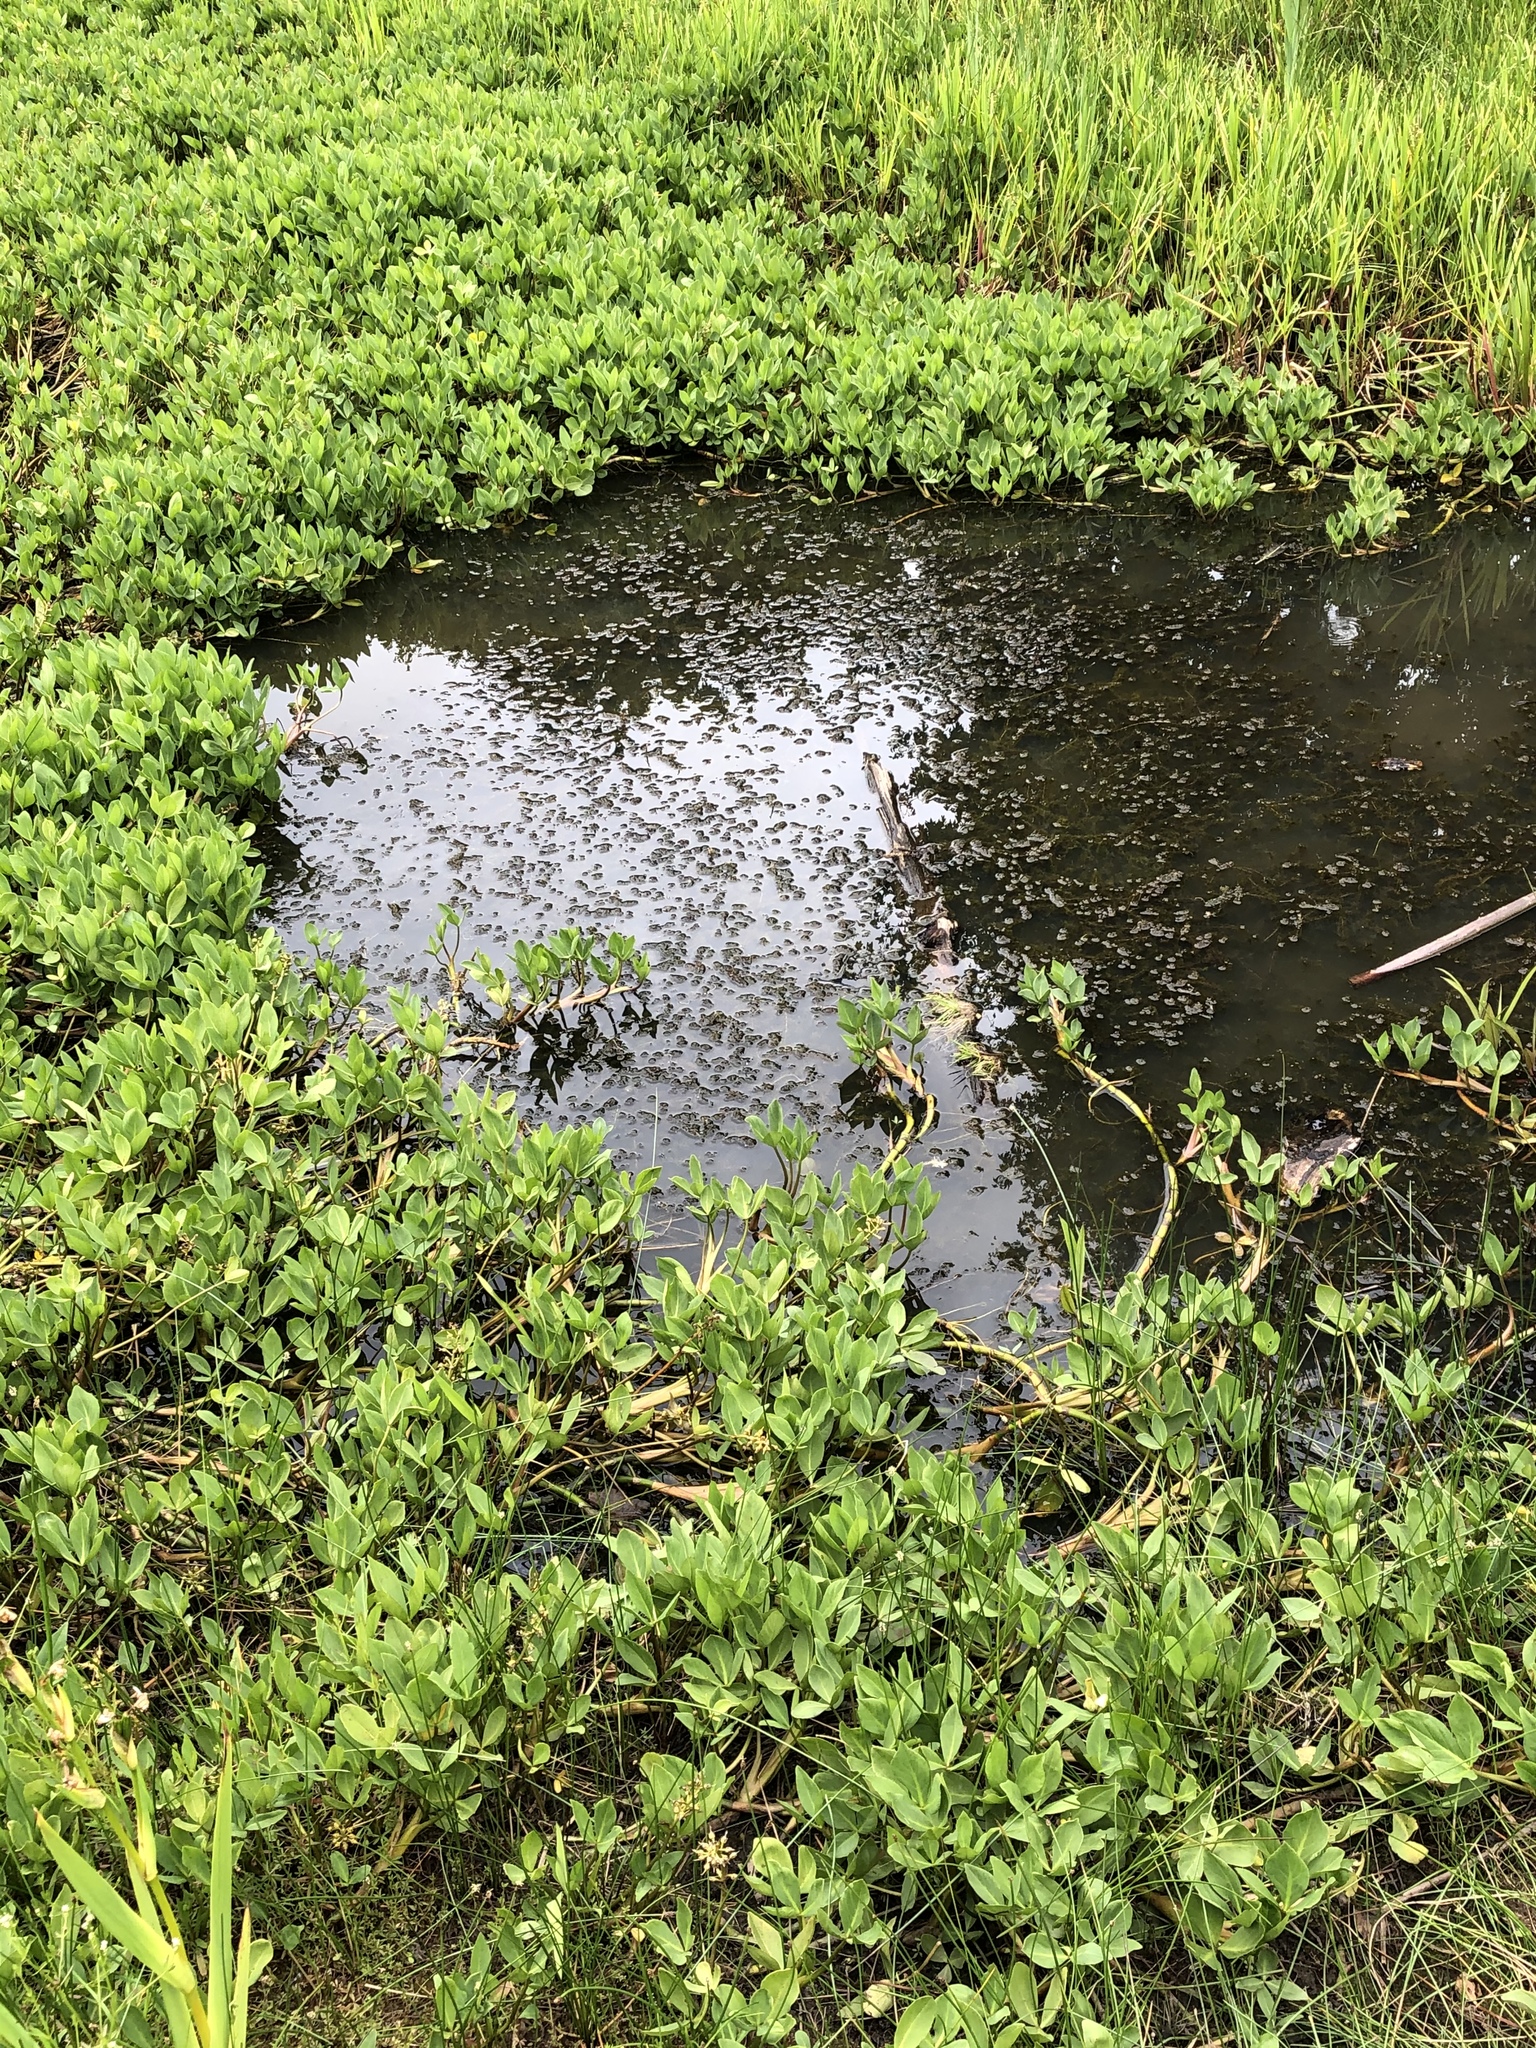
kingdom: Plantae
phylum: Tracheophyta
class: Magnoliopsida
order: Asterales
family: Menyanthaceae
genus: Menyanthes
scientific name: Menyanthes trifoliata
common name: Bogbean
